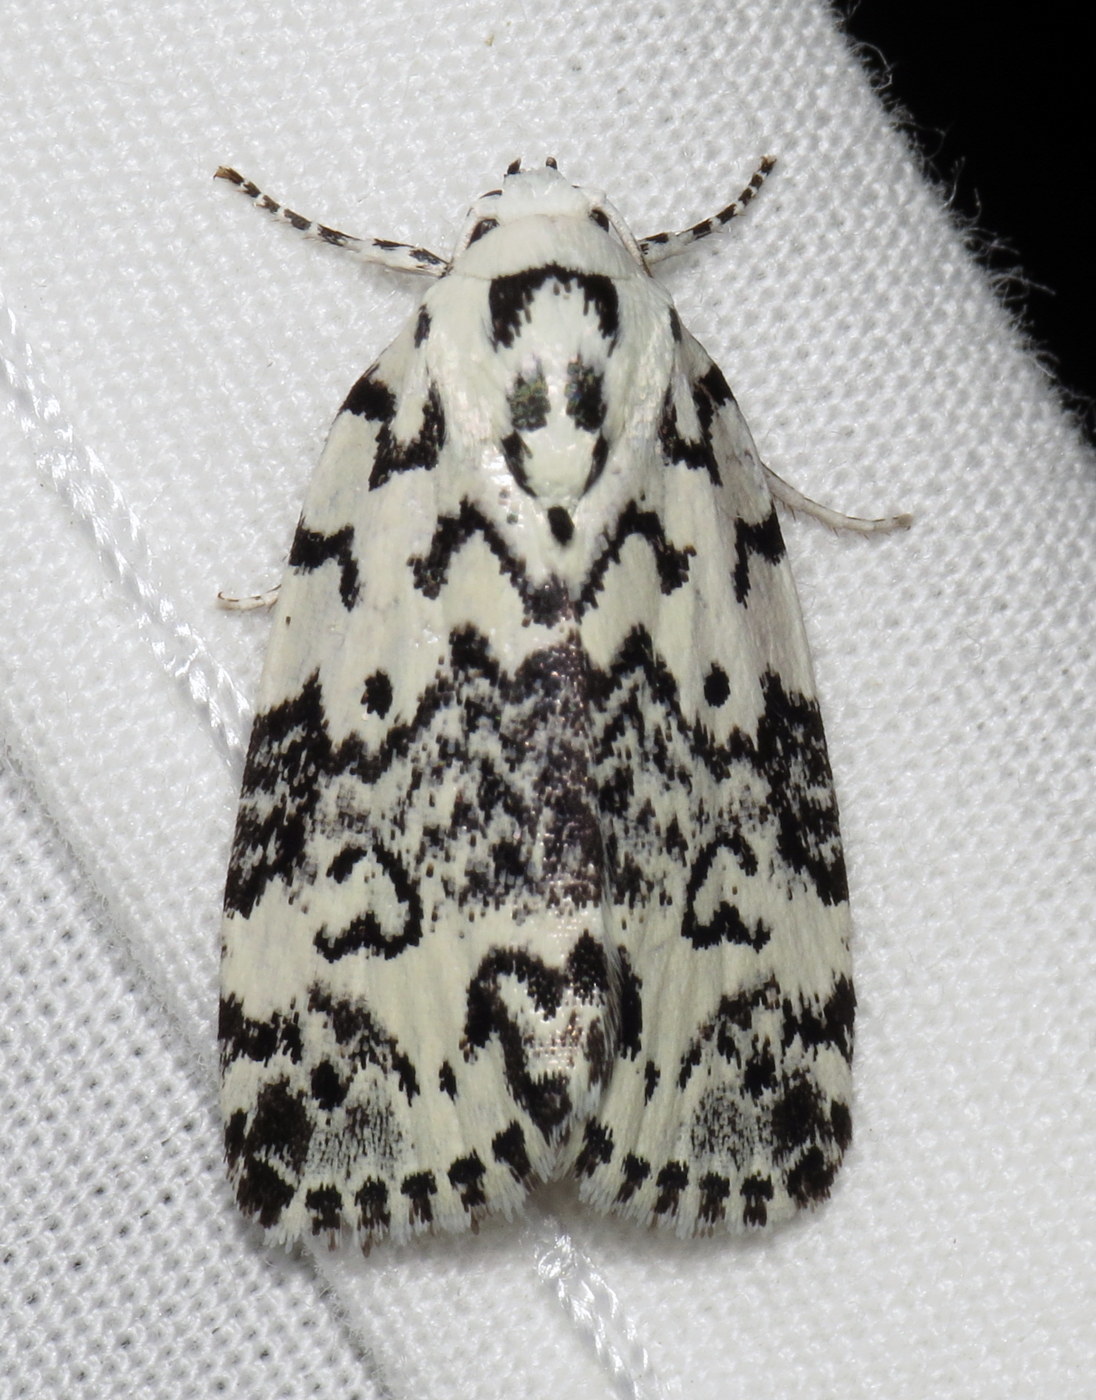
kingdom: Animalia
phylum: Arthropoda
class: Insecta
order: Lepidoptera
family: Noctuidae
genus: Polygrammate
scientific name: Polygrammate hebraeicum
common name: Hebrew moth
